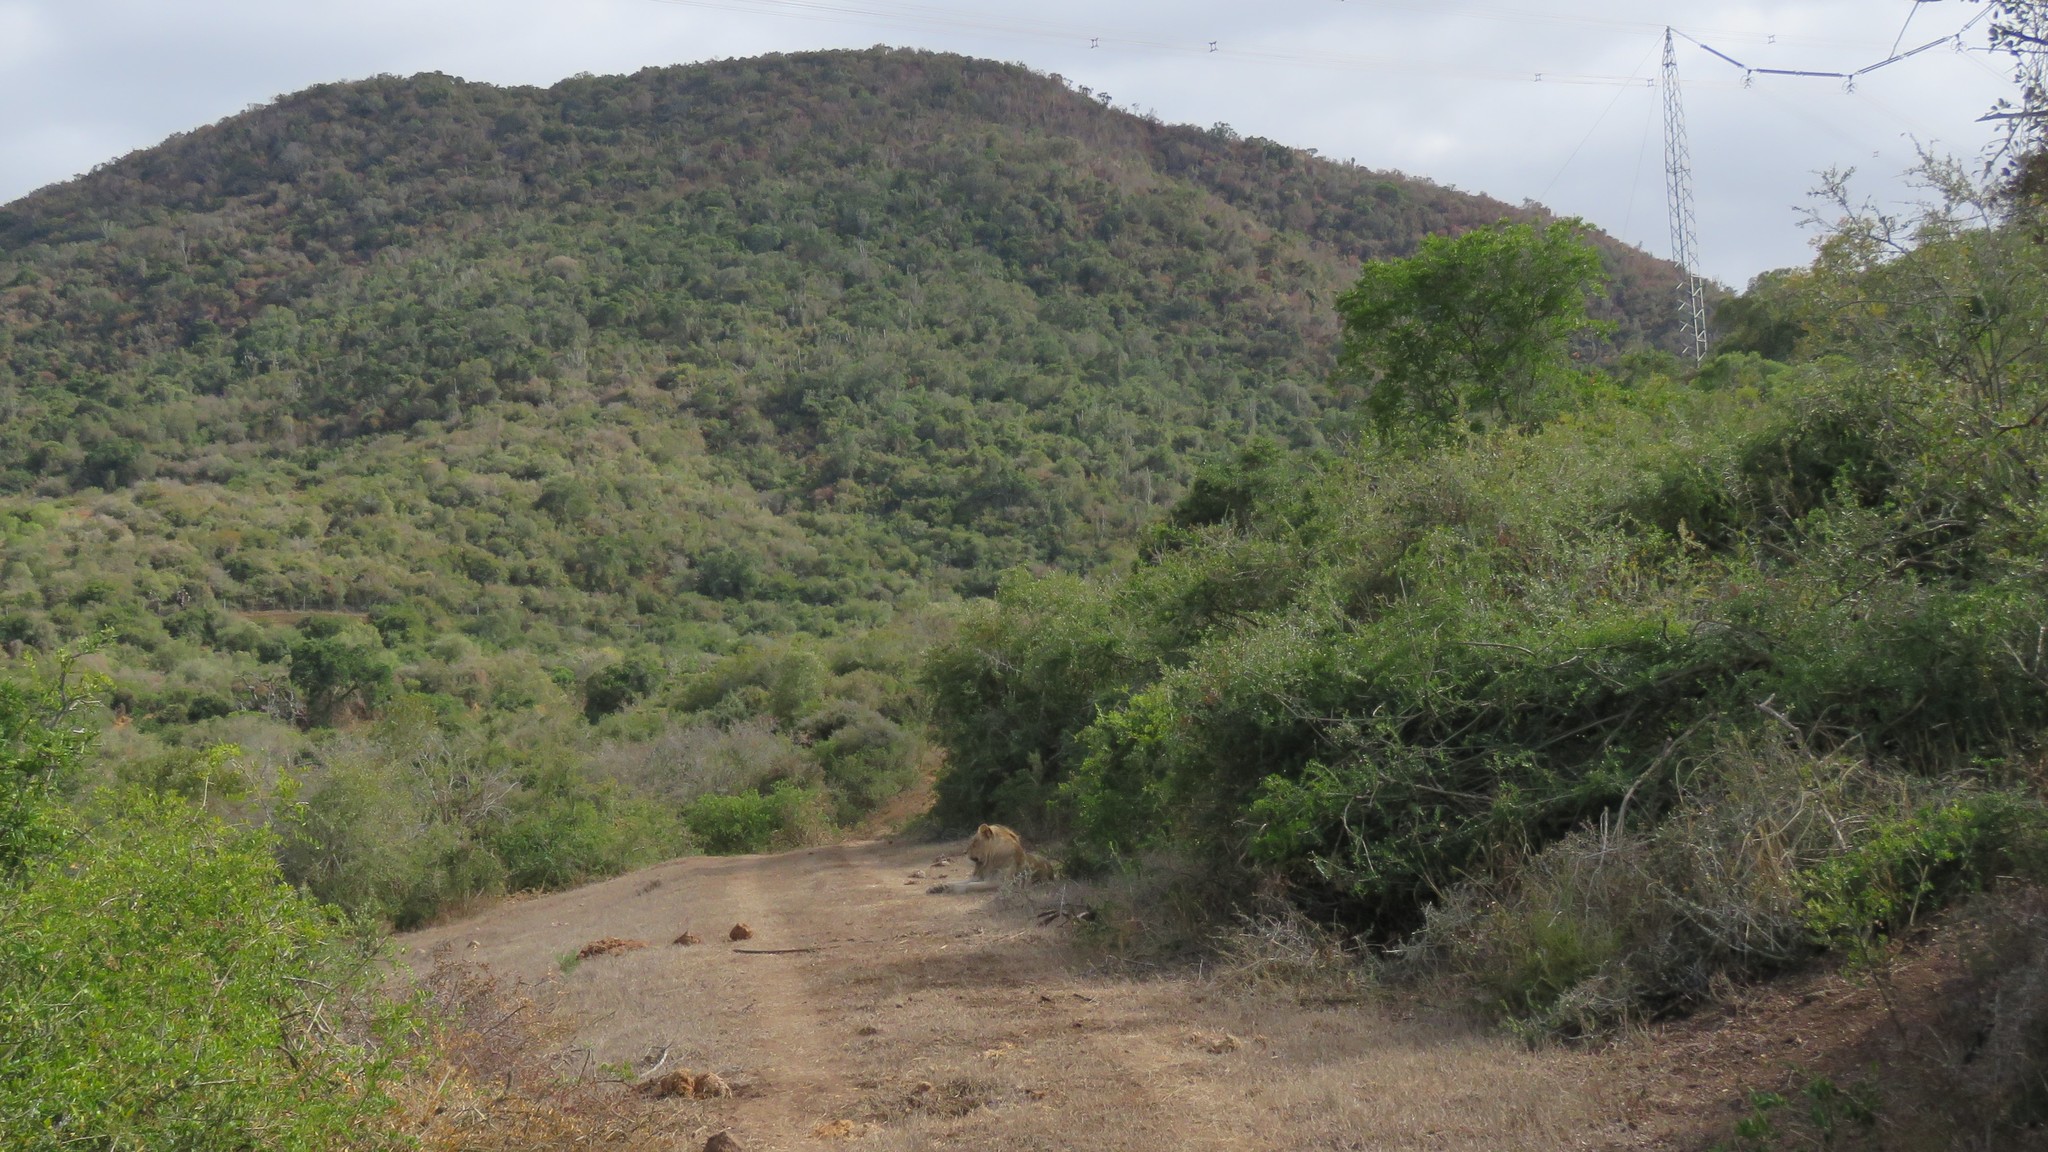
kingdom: Animalia
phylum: Chordata
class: Mammalia
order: Carnivora
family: Felidae
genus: Panthera
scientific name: Panthera leo
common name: Lion
